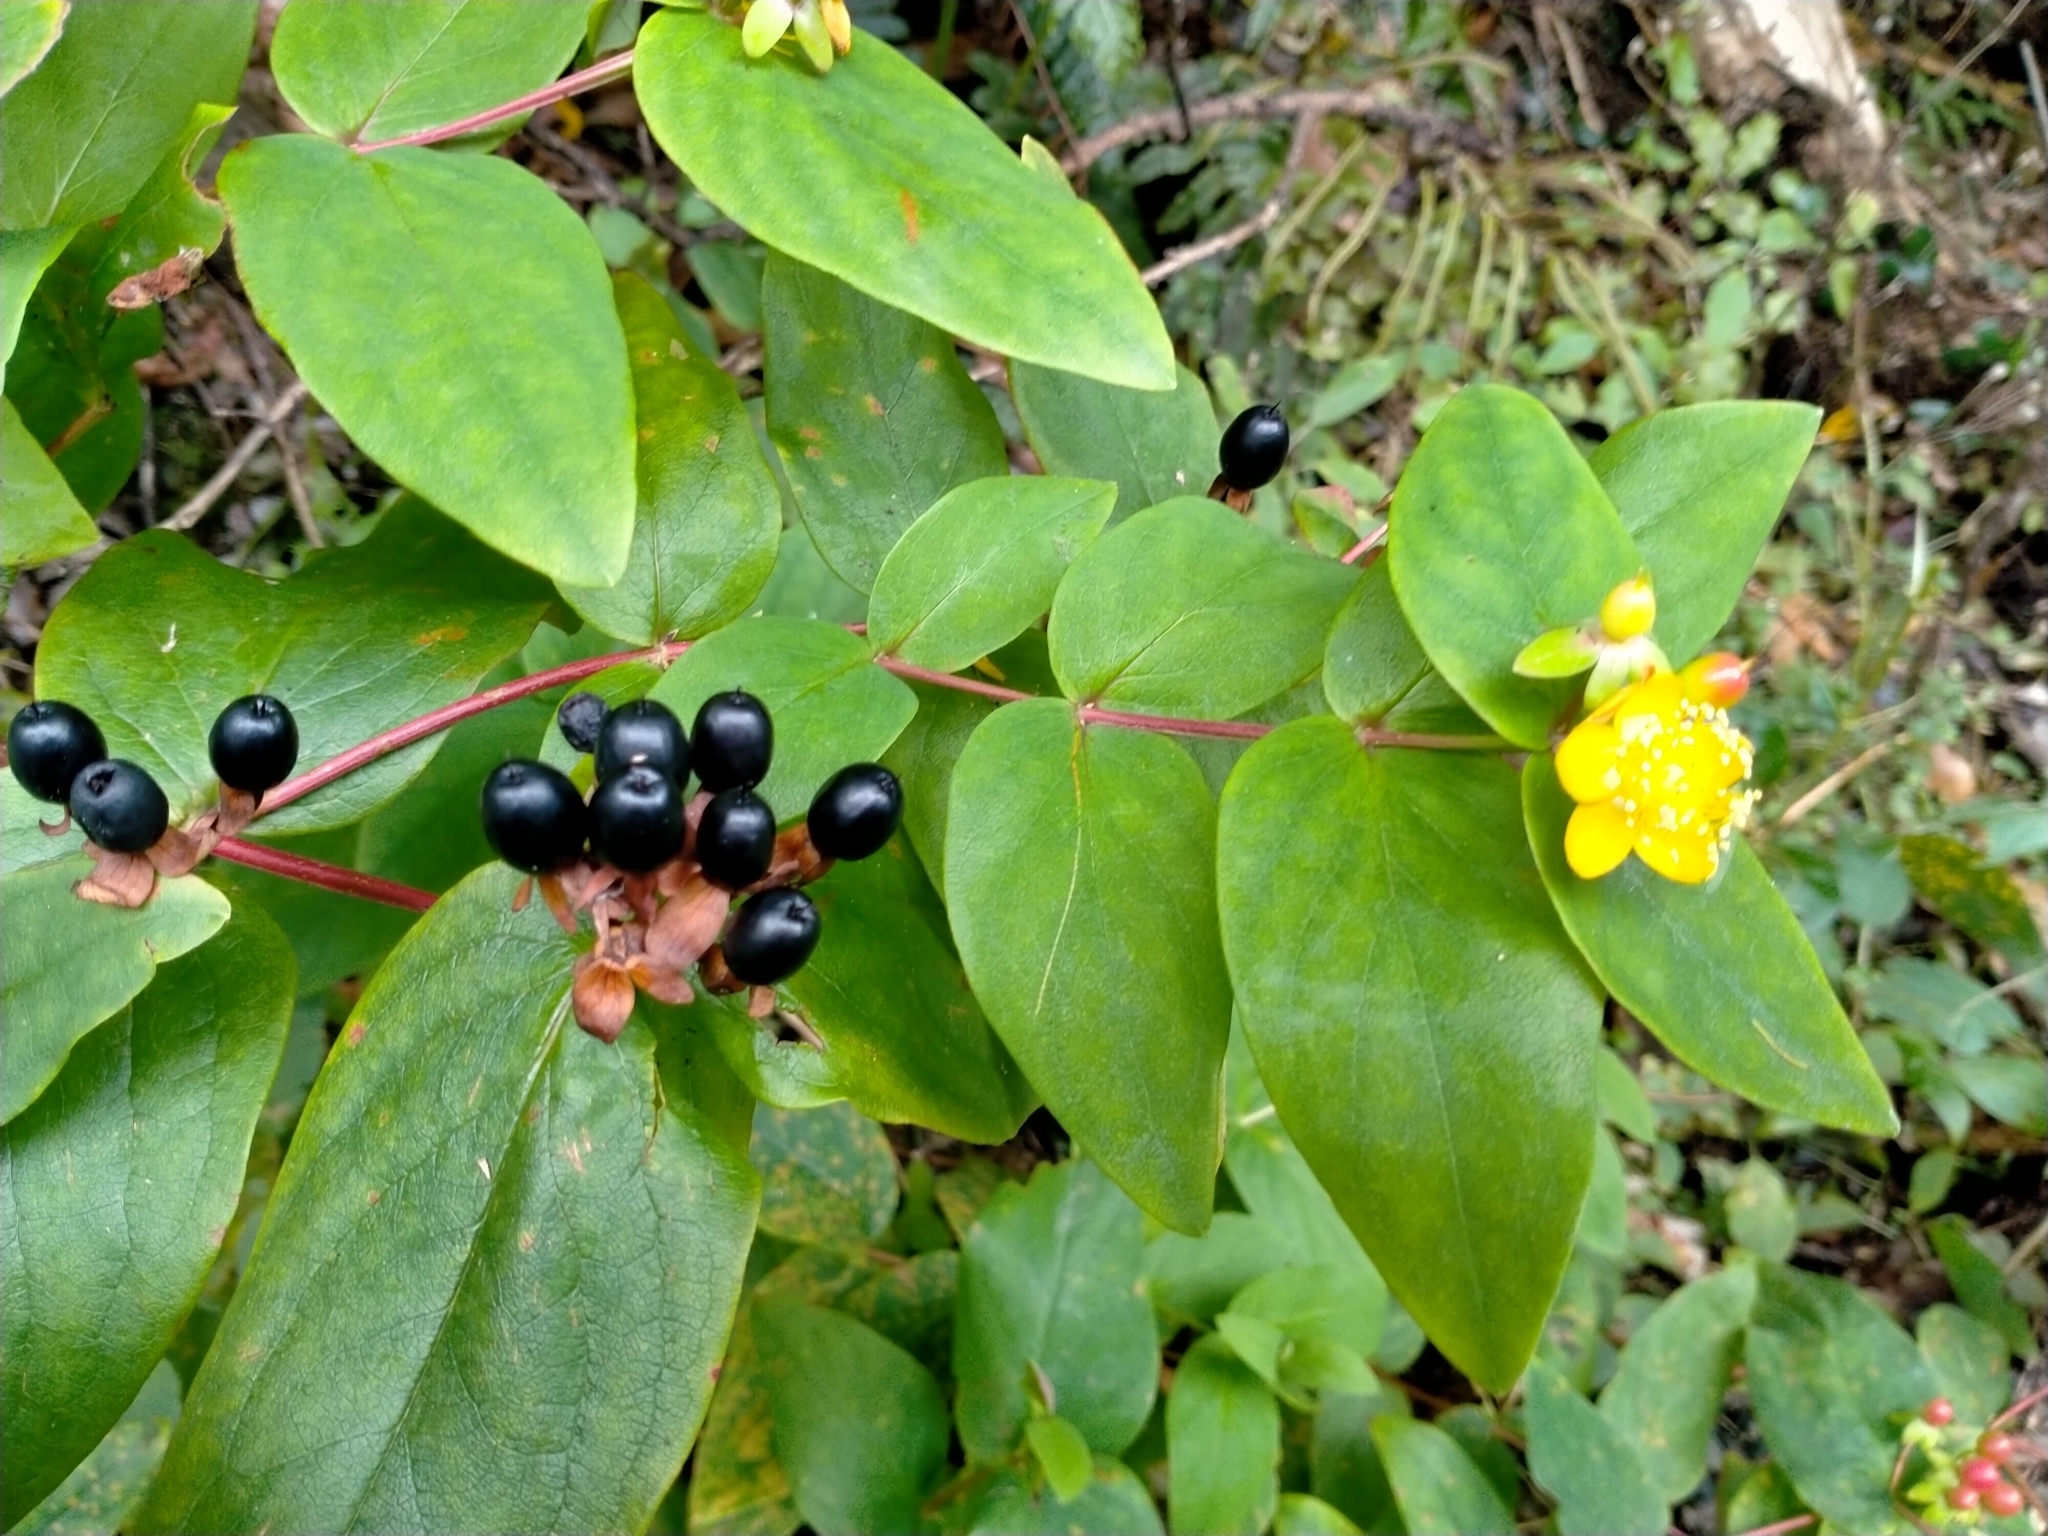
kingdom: Plantae
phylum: Tracheophyta
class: Magnoliopsida
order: Malpighiales
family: Hypericaceae
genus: Hypericum
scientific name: Hypericum androsaemum
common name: Sweet-amber
